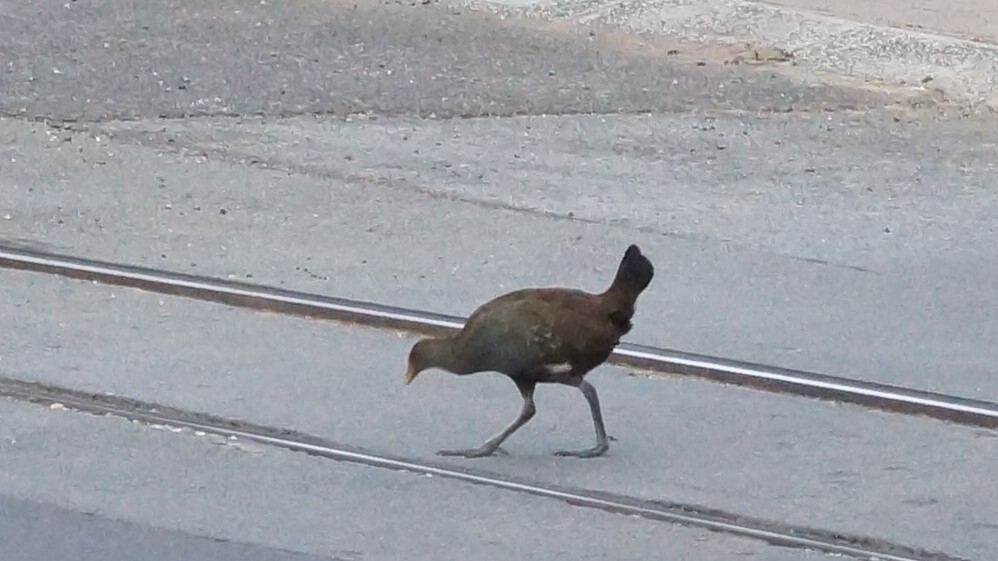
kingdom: Animalia
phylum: Chordata
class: Aves
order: Gruiformes
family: Rallidae
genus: Gallinula
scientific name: Gallinula mortierii
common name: Tasmanian nativehen
